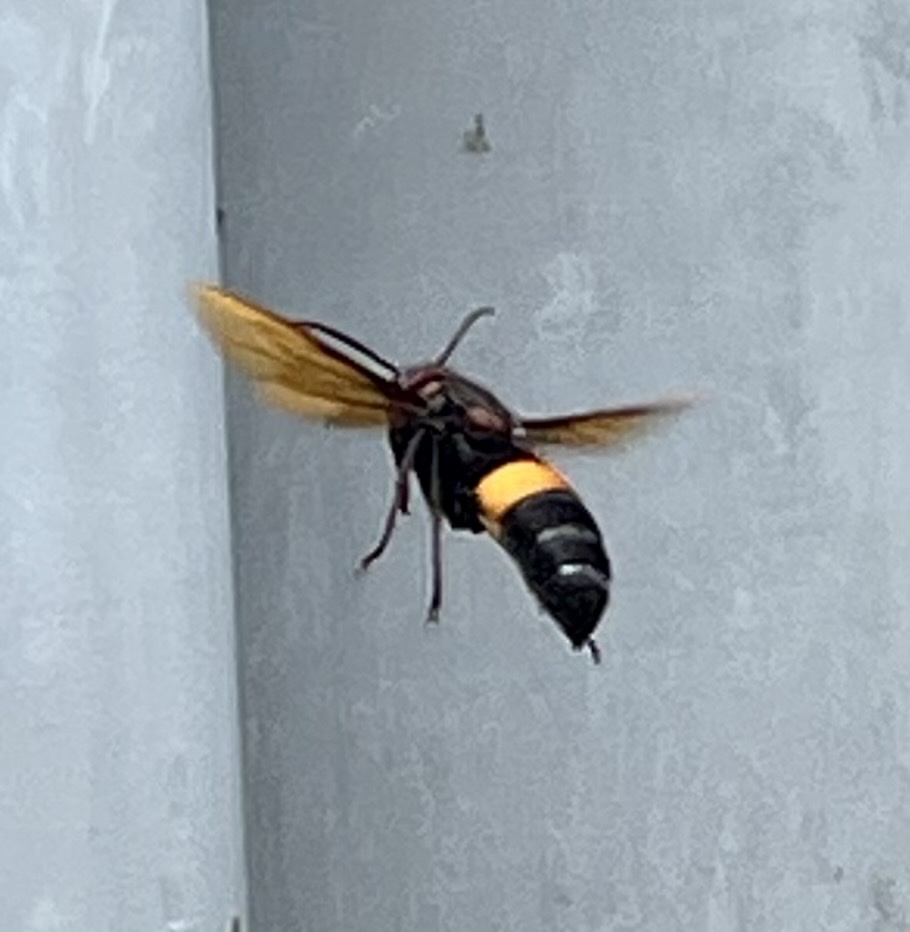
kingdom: Animalia
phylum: Arthropoda
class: Insecta
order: Hymenoptera
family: Vespidae
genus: Vespa
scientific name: Vespa tropica
